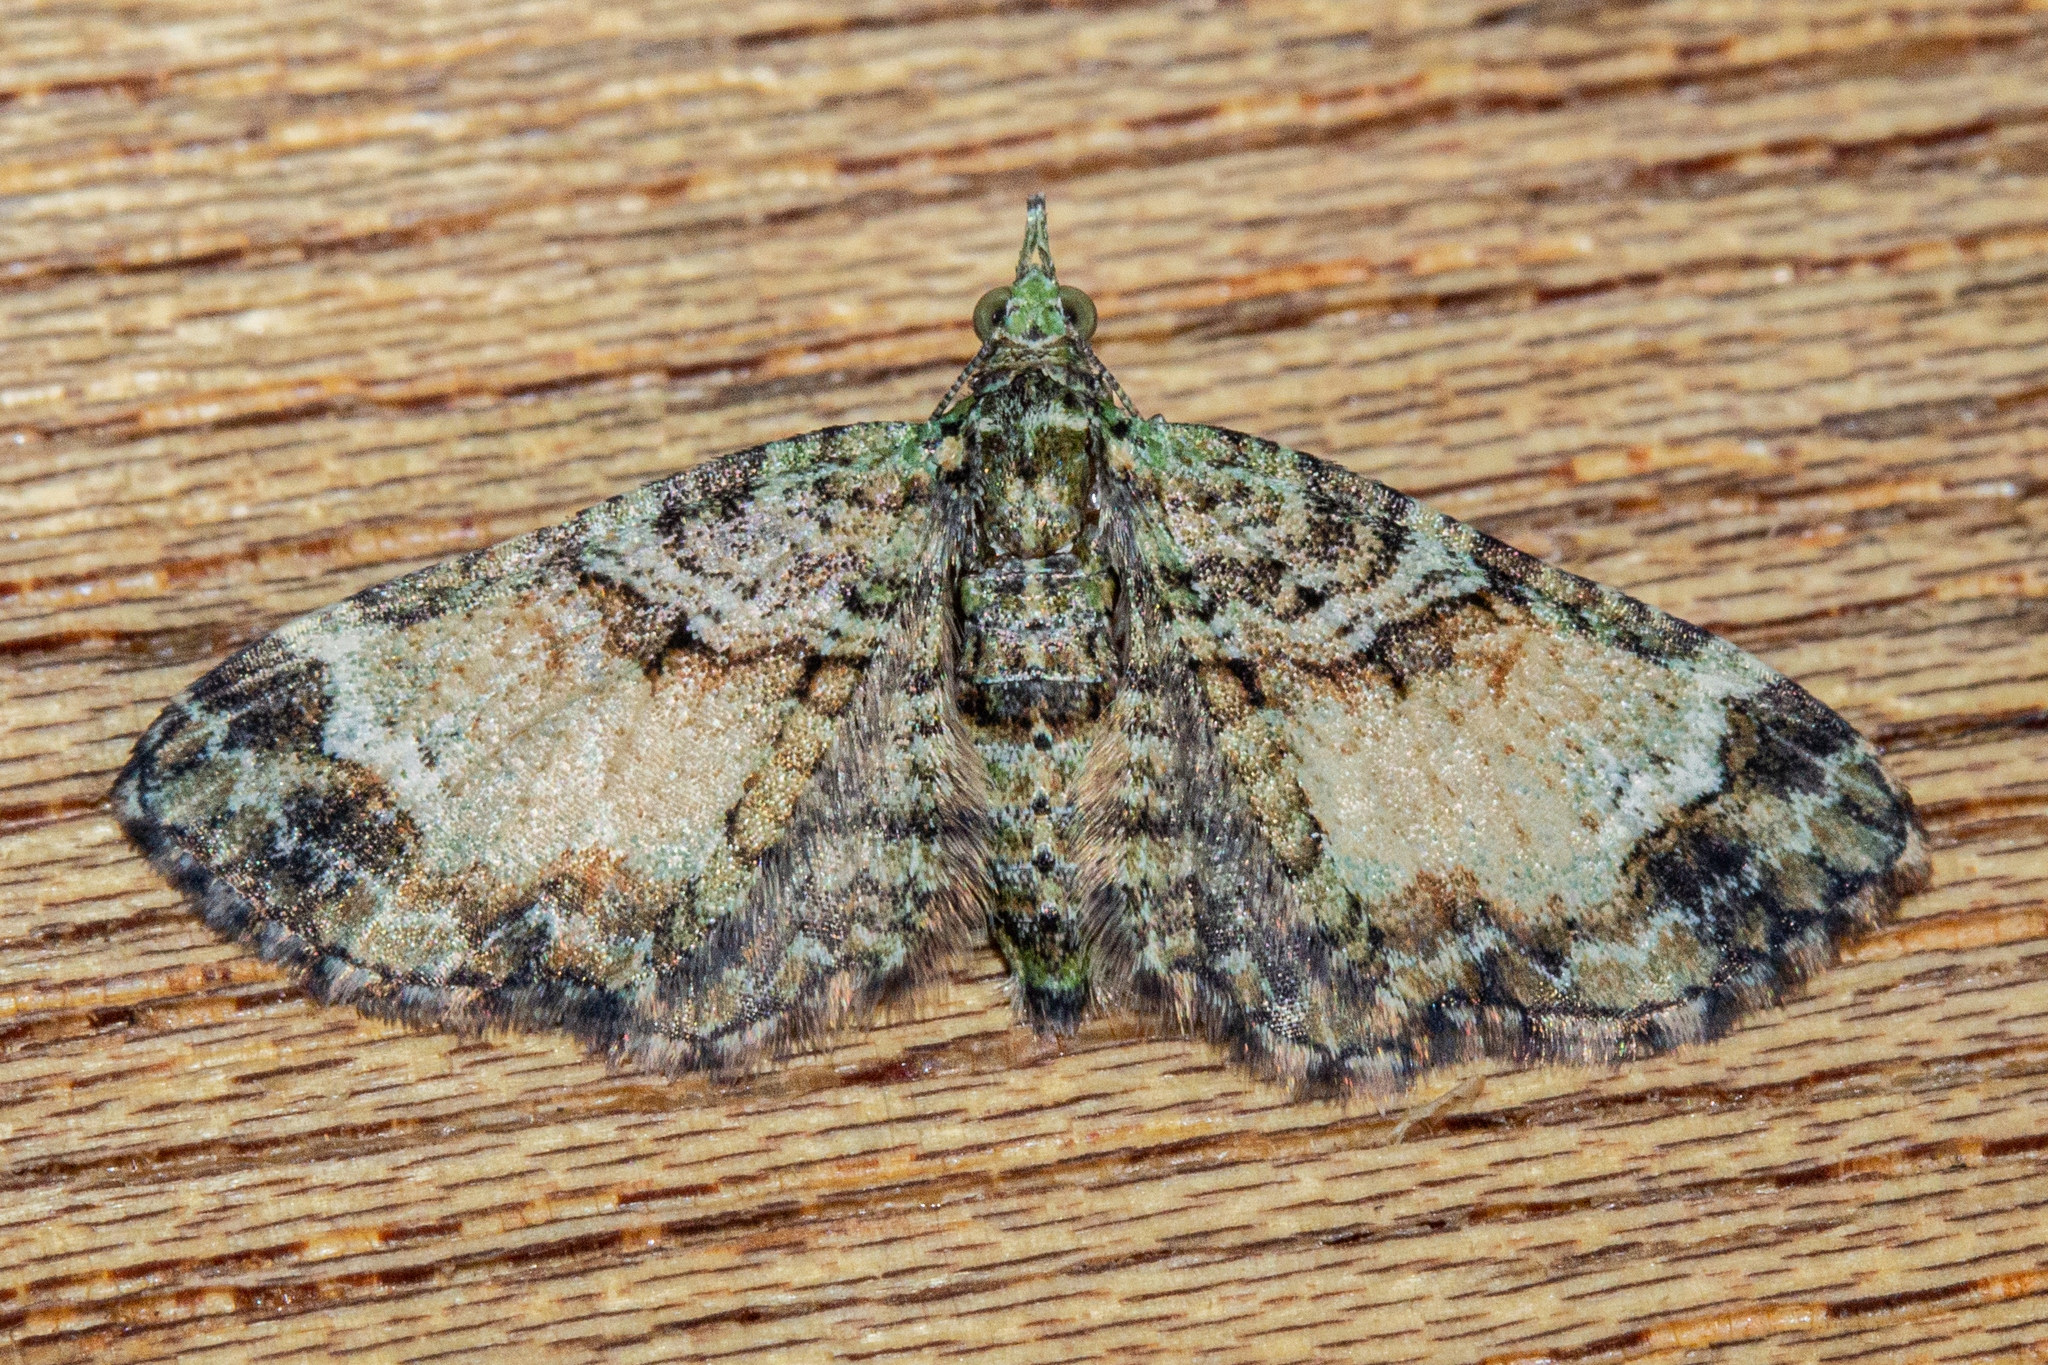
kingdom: Animalia
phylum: Arthropoda
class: Insecta
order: Lepidoptera
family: Geometridae
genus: Pasiphila
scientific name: Pasiphila bilineolata
